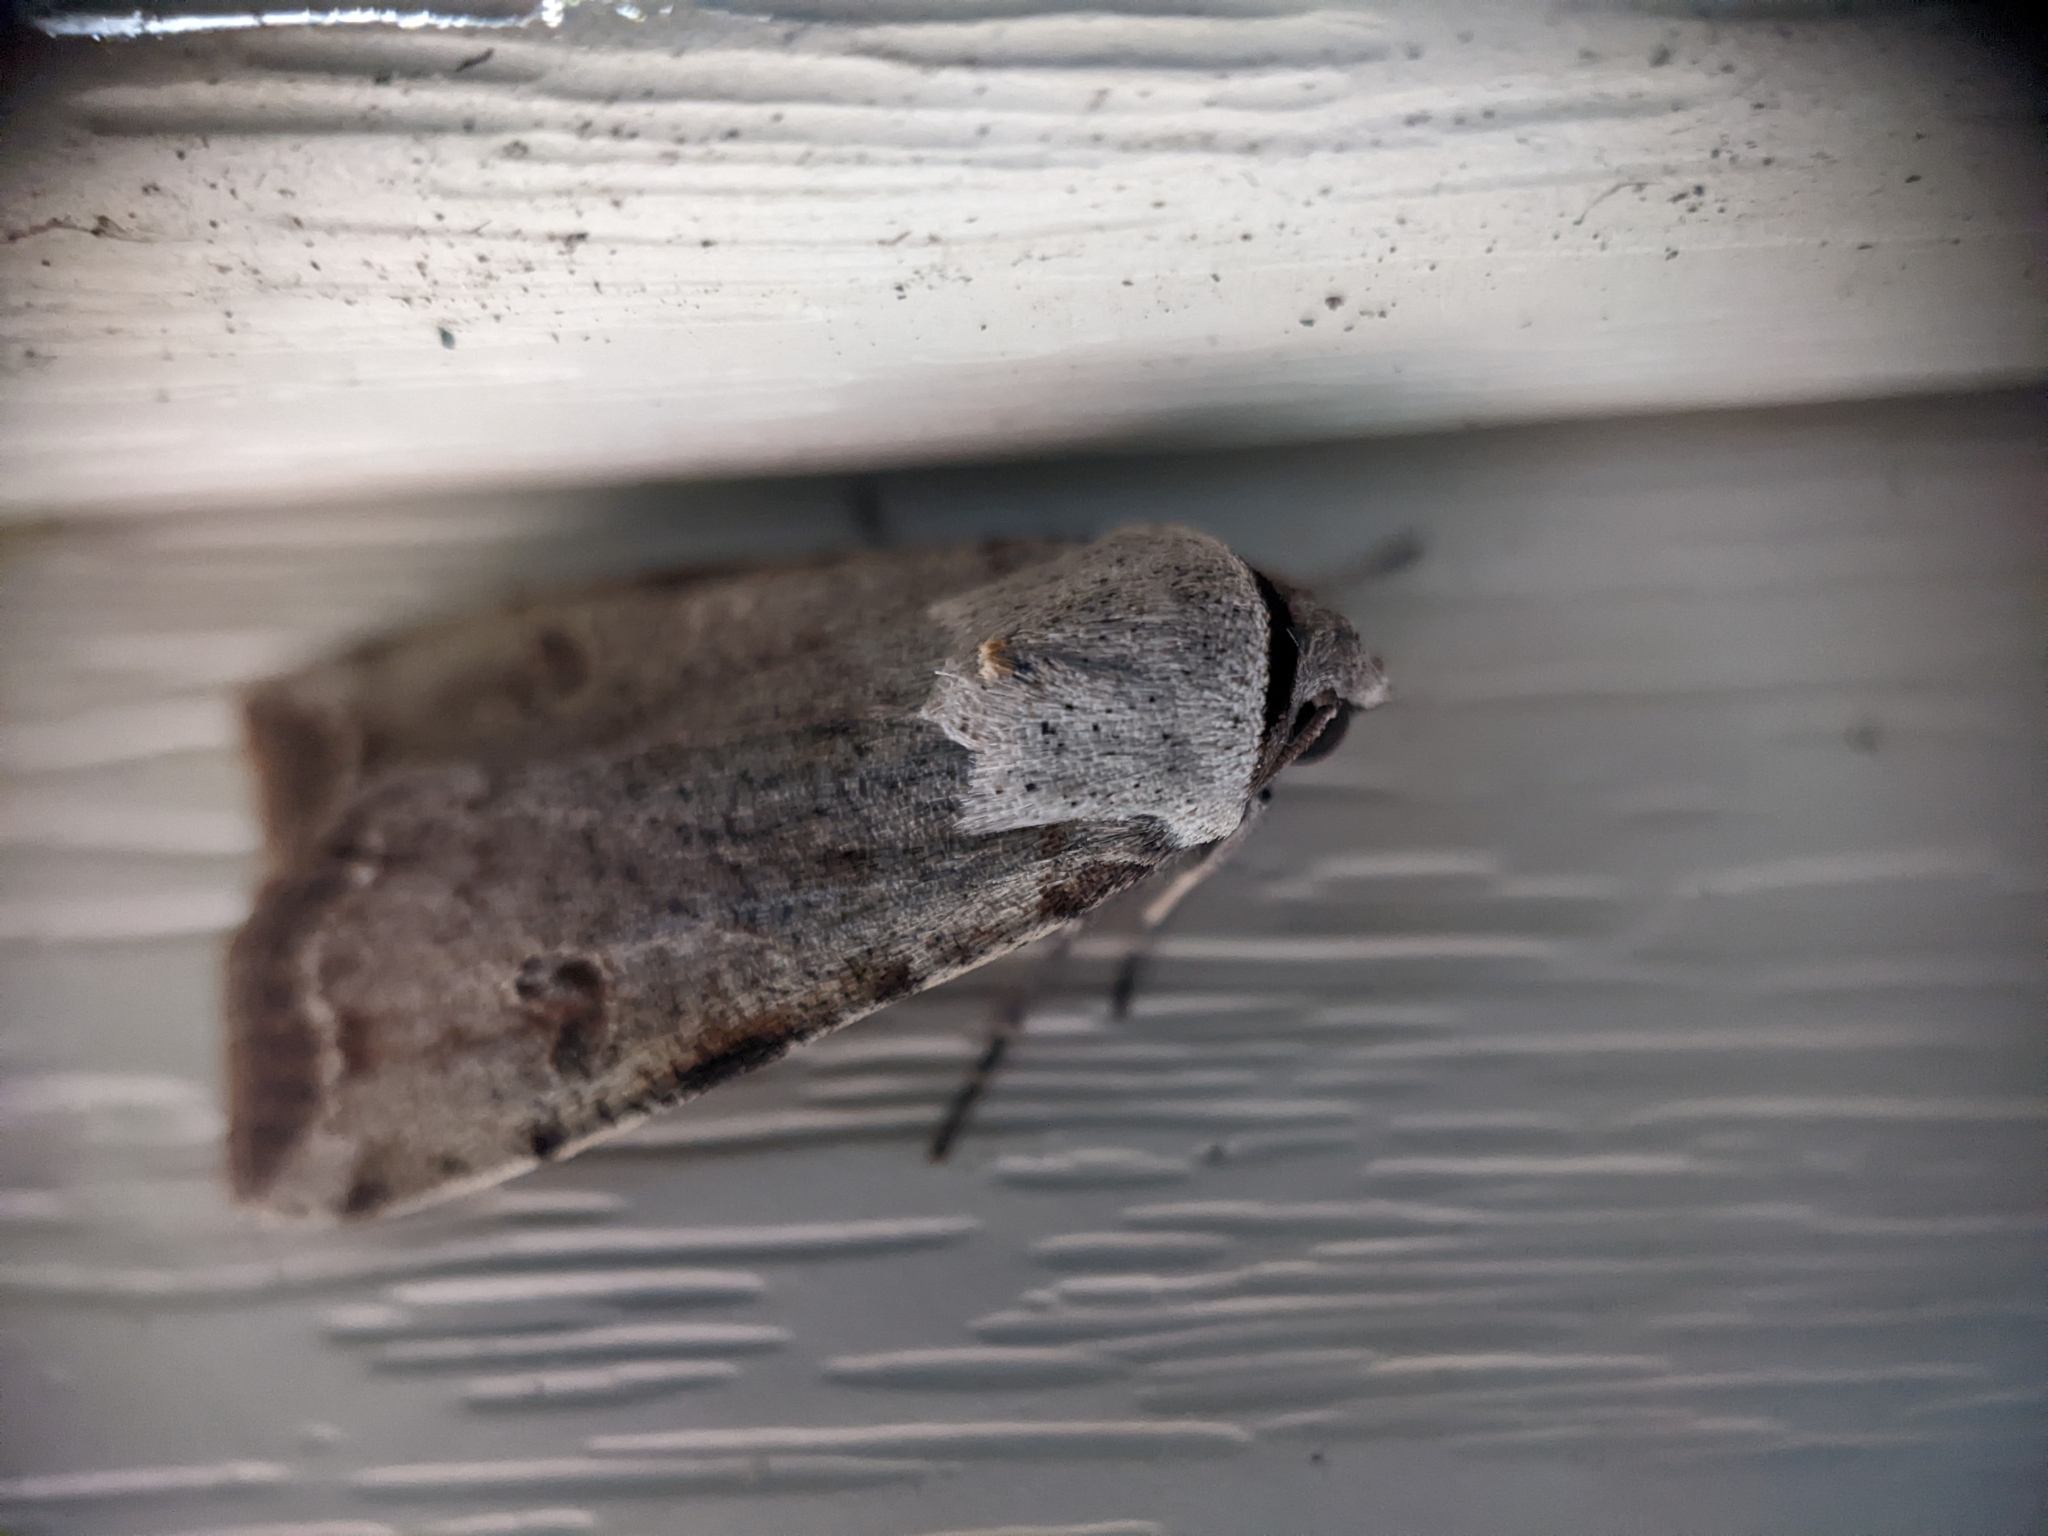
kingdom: Animalia
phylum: Arthropoda
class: Insecta
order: Lepidoptera
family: Noctuidae
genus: Anicla
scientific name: Anicla infecta
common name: Green cutworm
